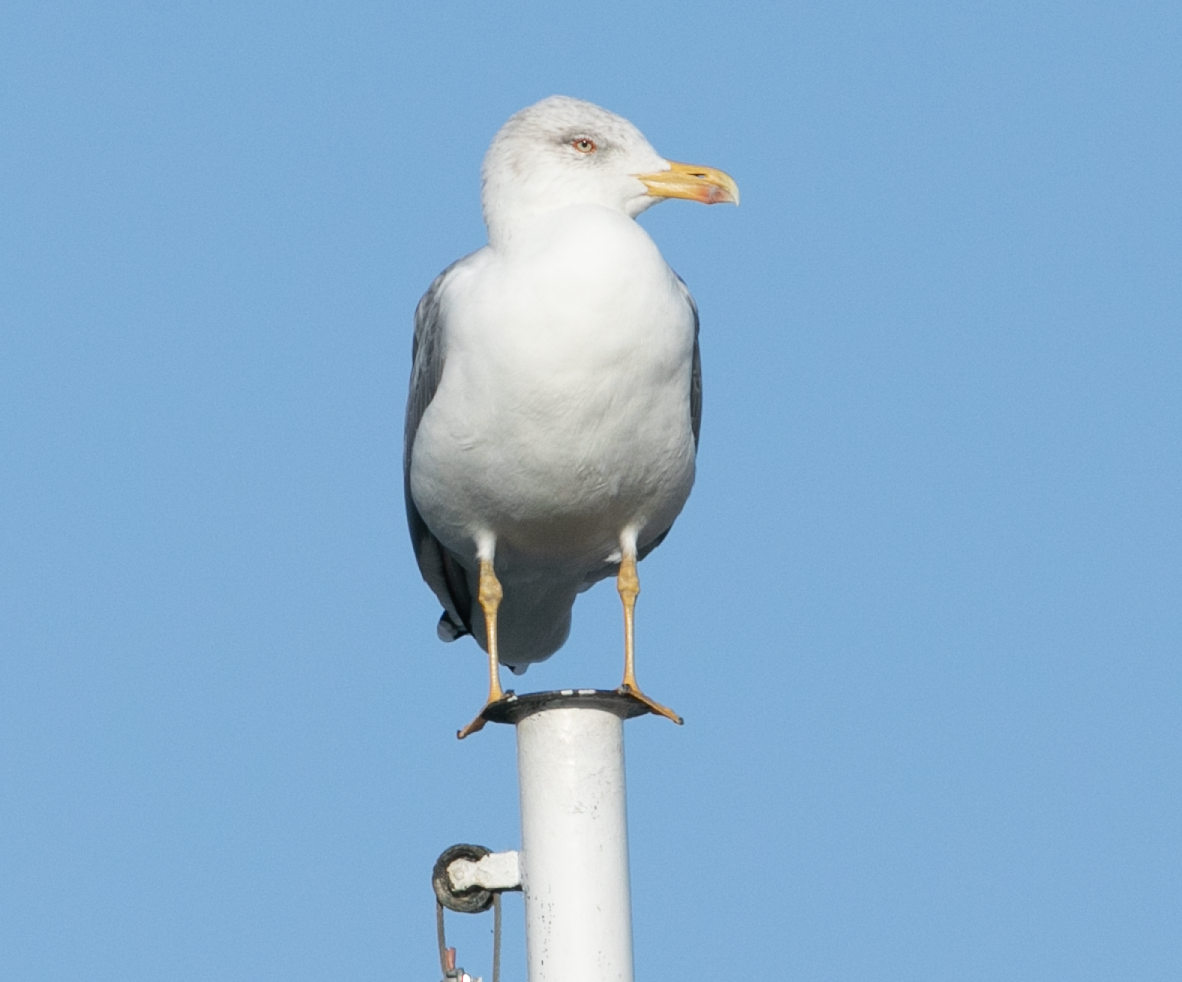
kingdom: Animalia
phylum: Chordata
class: Aves
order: Charadriiformes
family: Laridae
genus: Larus
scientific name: Larus michahellis
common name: Yellow-legged gull
